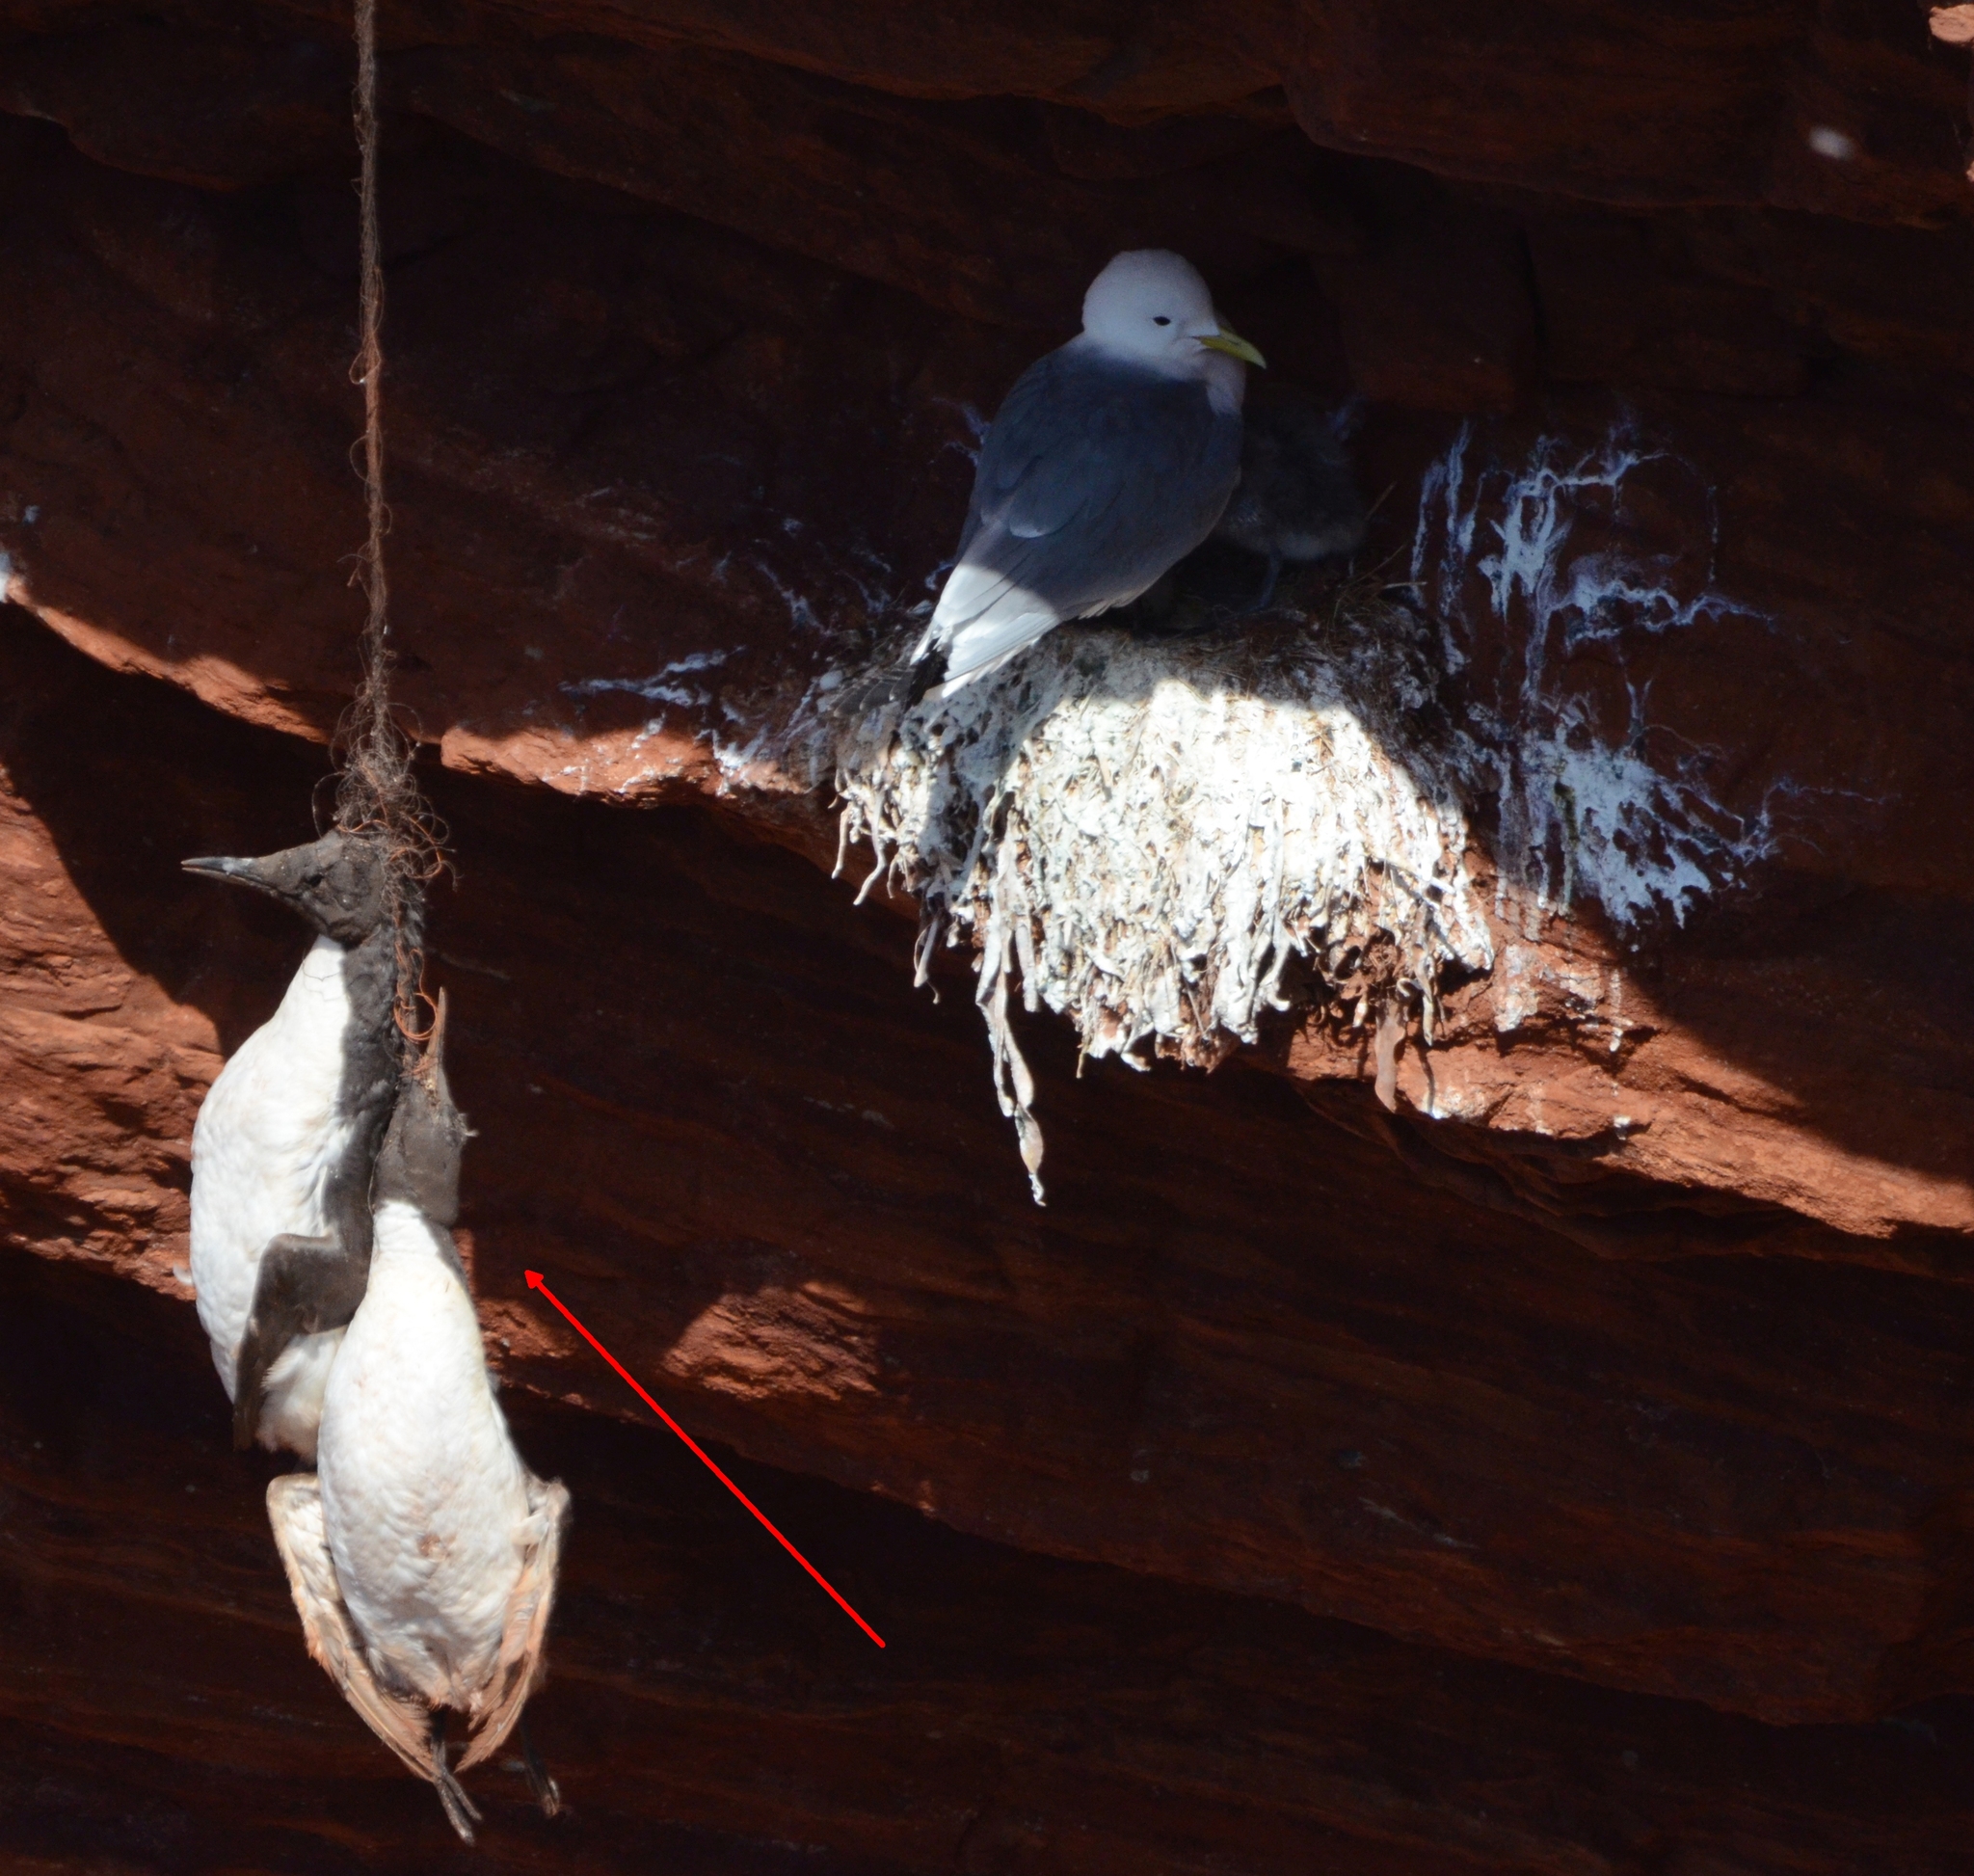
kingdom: Animalia
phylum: Chordata
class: Aves
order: Charadriiformes
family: Alcidae
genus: Uria
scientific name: Uria aalge
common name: Common murre
